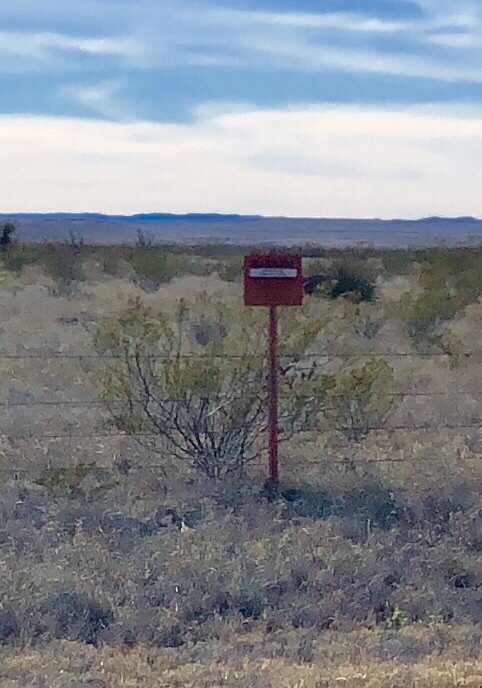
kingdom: Plantae
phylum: Tracheophyta
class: Magnoliopsida
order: Zygophyllales
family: Zygophyllaceae
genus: Larrea
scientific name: Larrea tridentata
